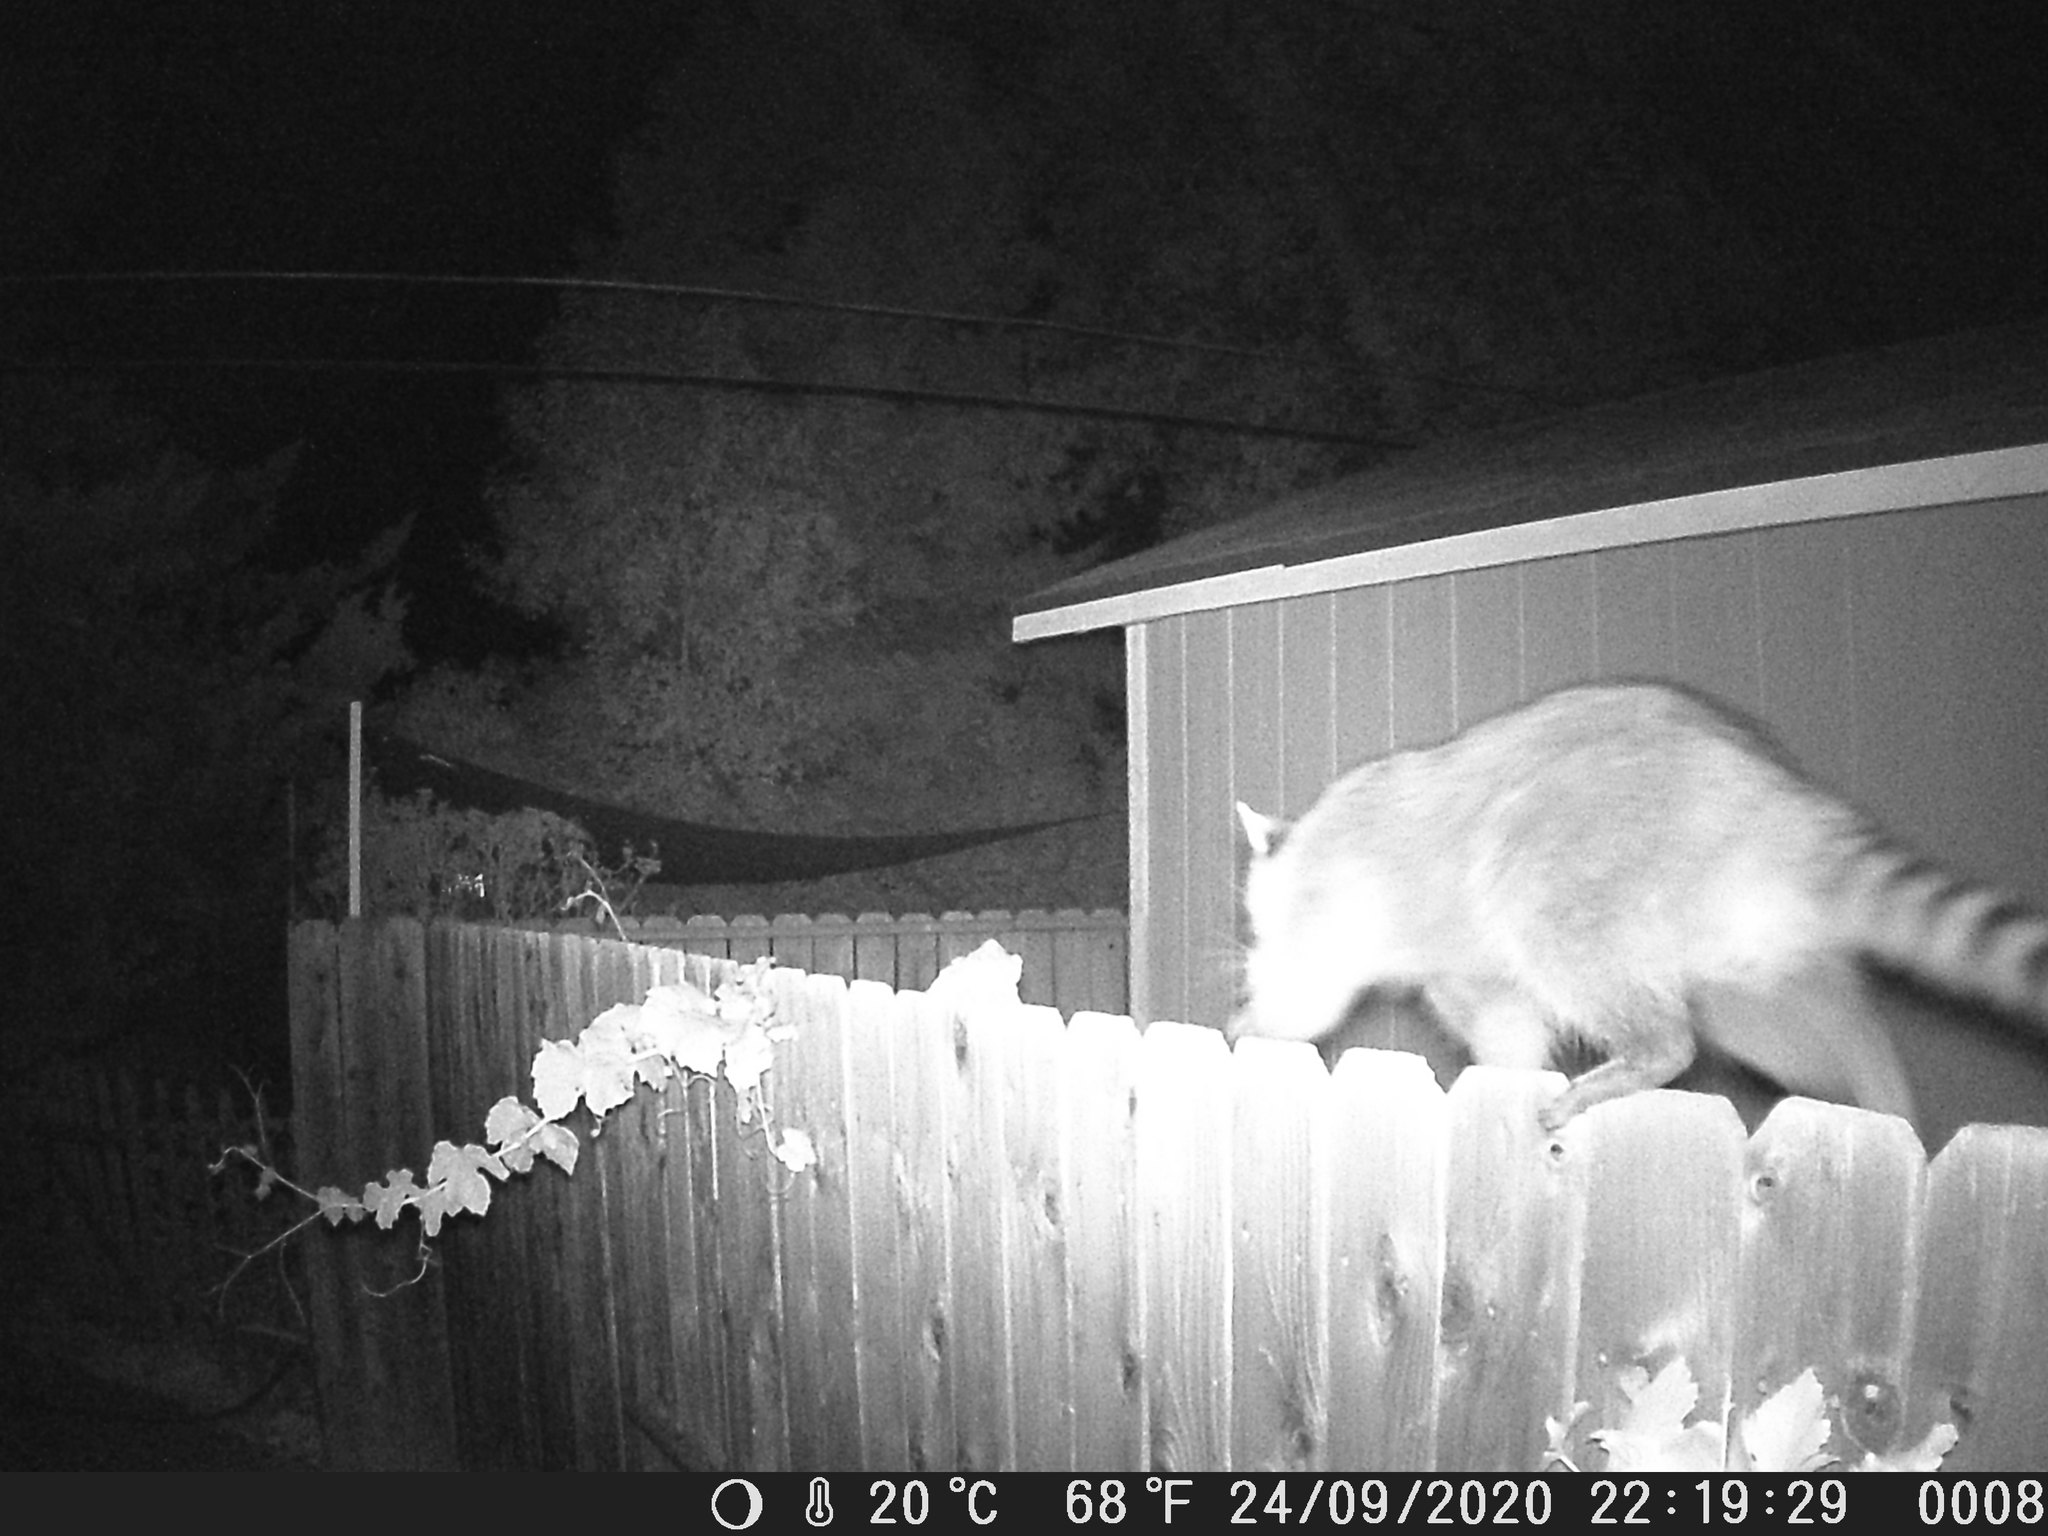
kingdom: Animalia
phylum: Chordata
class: Mammalia
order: Carnivora
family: Procyonidae
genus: Procyon
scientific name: Procyon lotor
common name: Raccoon
